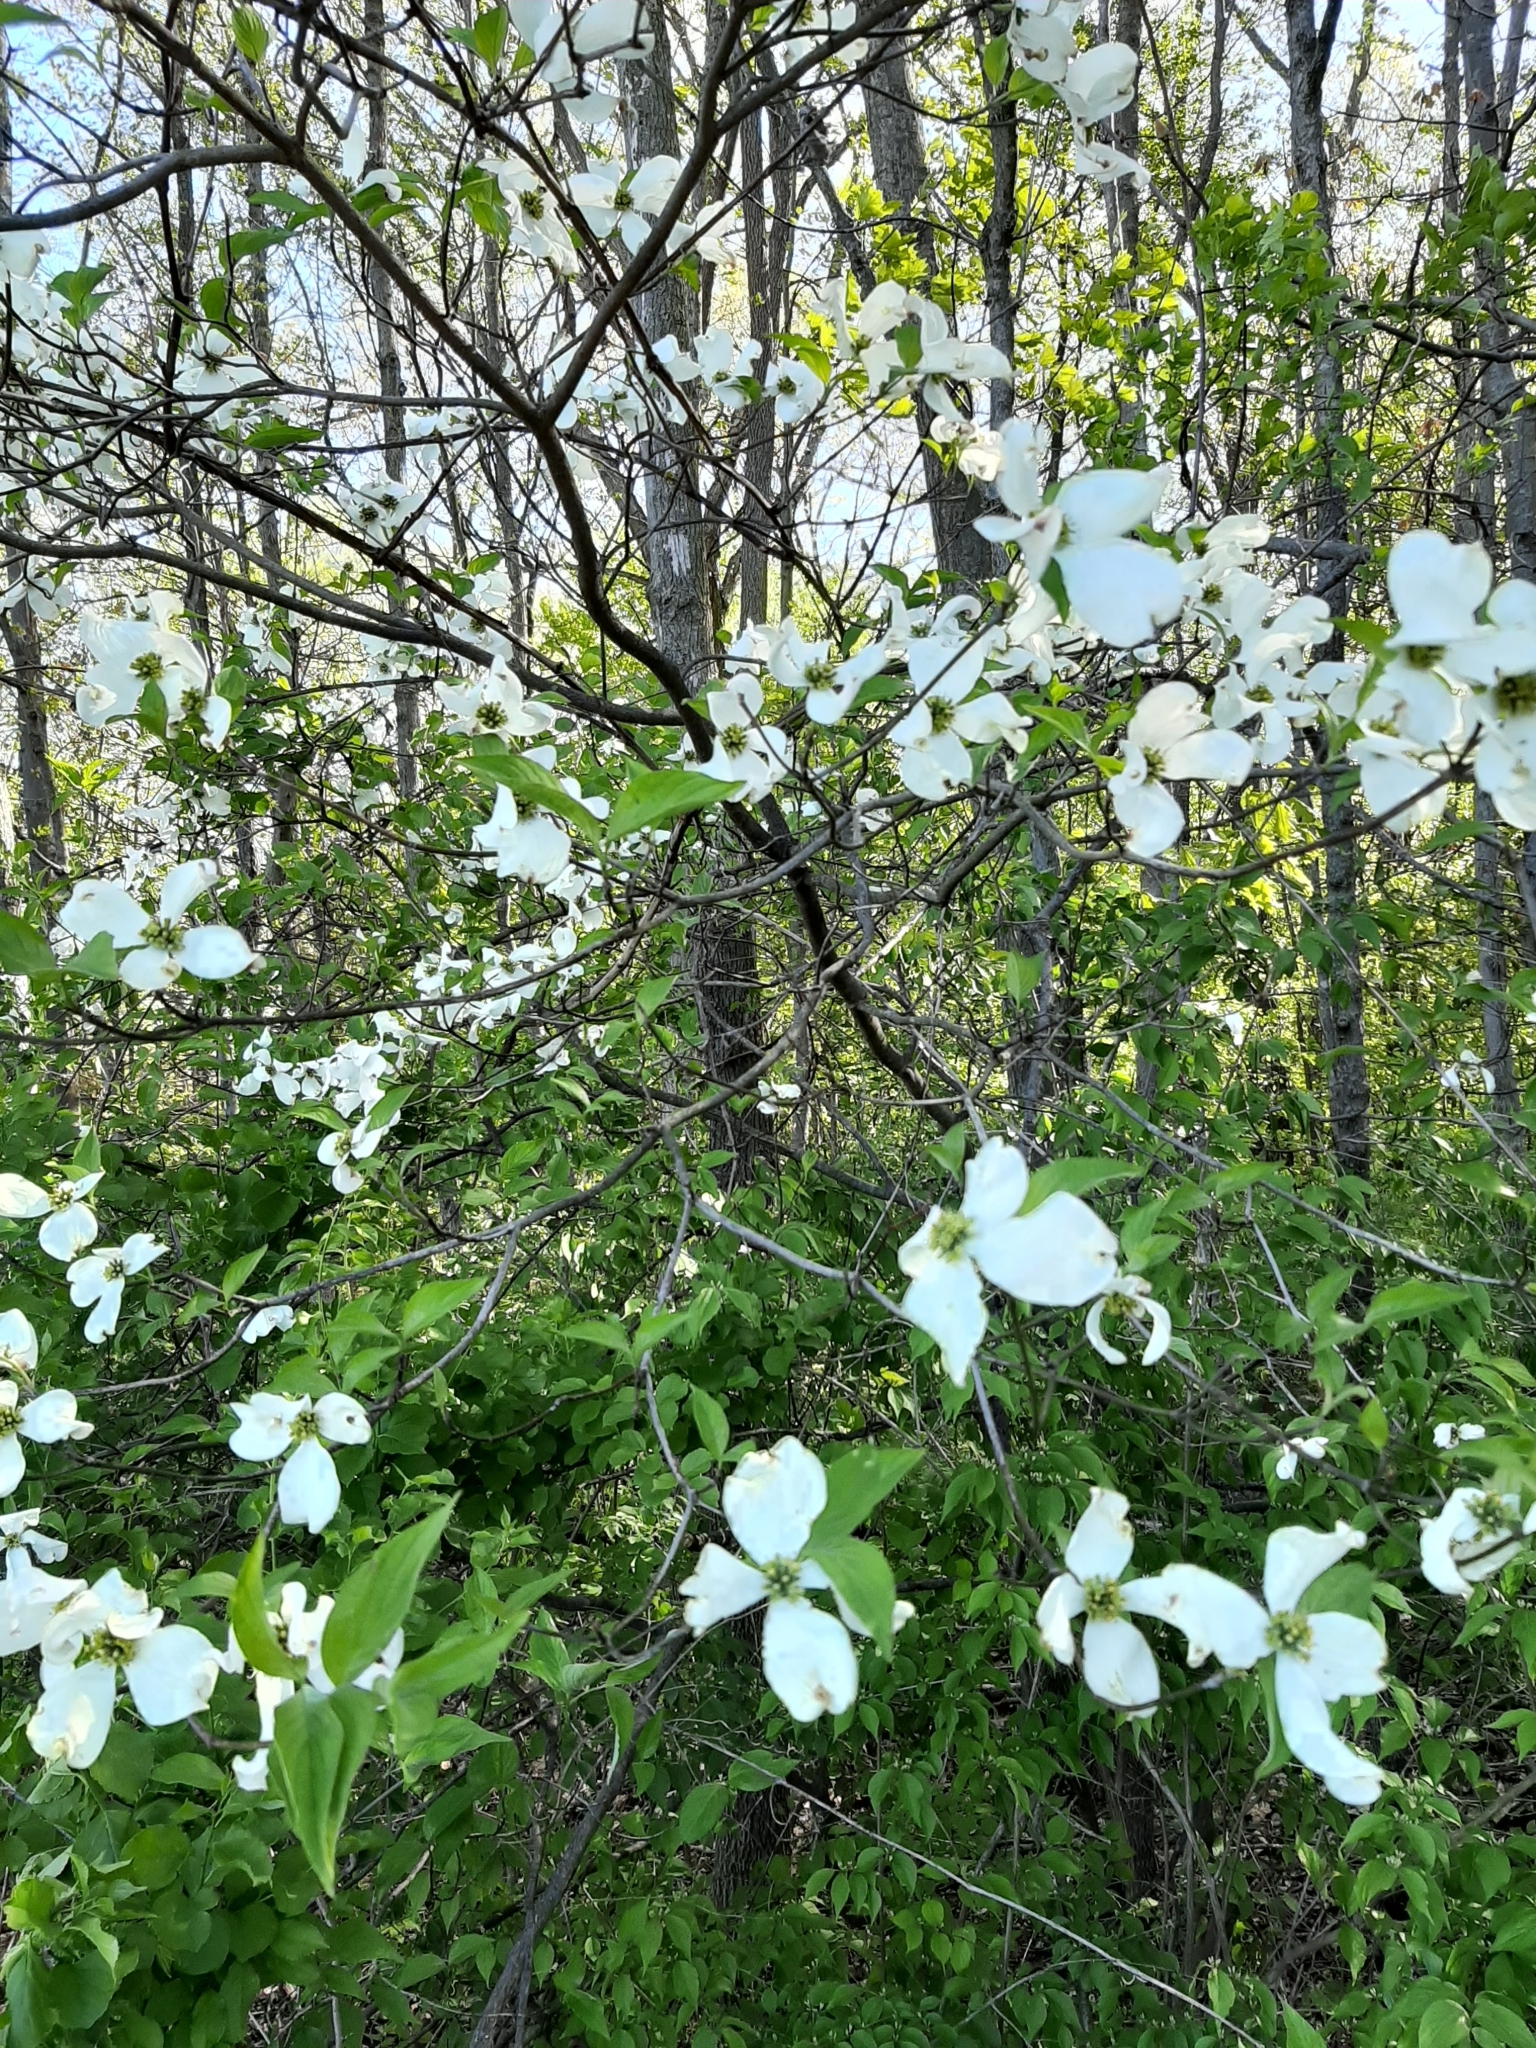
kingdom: Plantae
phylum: Tracheophyta
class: Magnoliopsida
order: Cornales
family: Cornaceae
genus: Cornus
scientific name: Cornus florida
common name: Flowering dogwood
